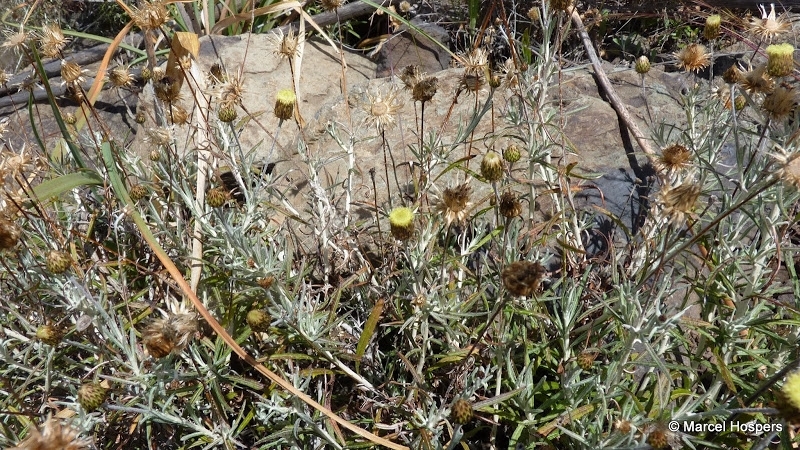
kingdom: Plantae
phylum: Tracheophyta
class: Magnoliopsida
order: Asterales
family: Asteraceae
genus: Phagnalon
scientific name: Phagnalon purpurascens
